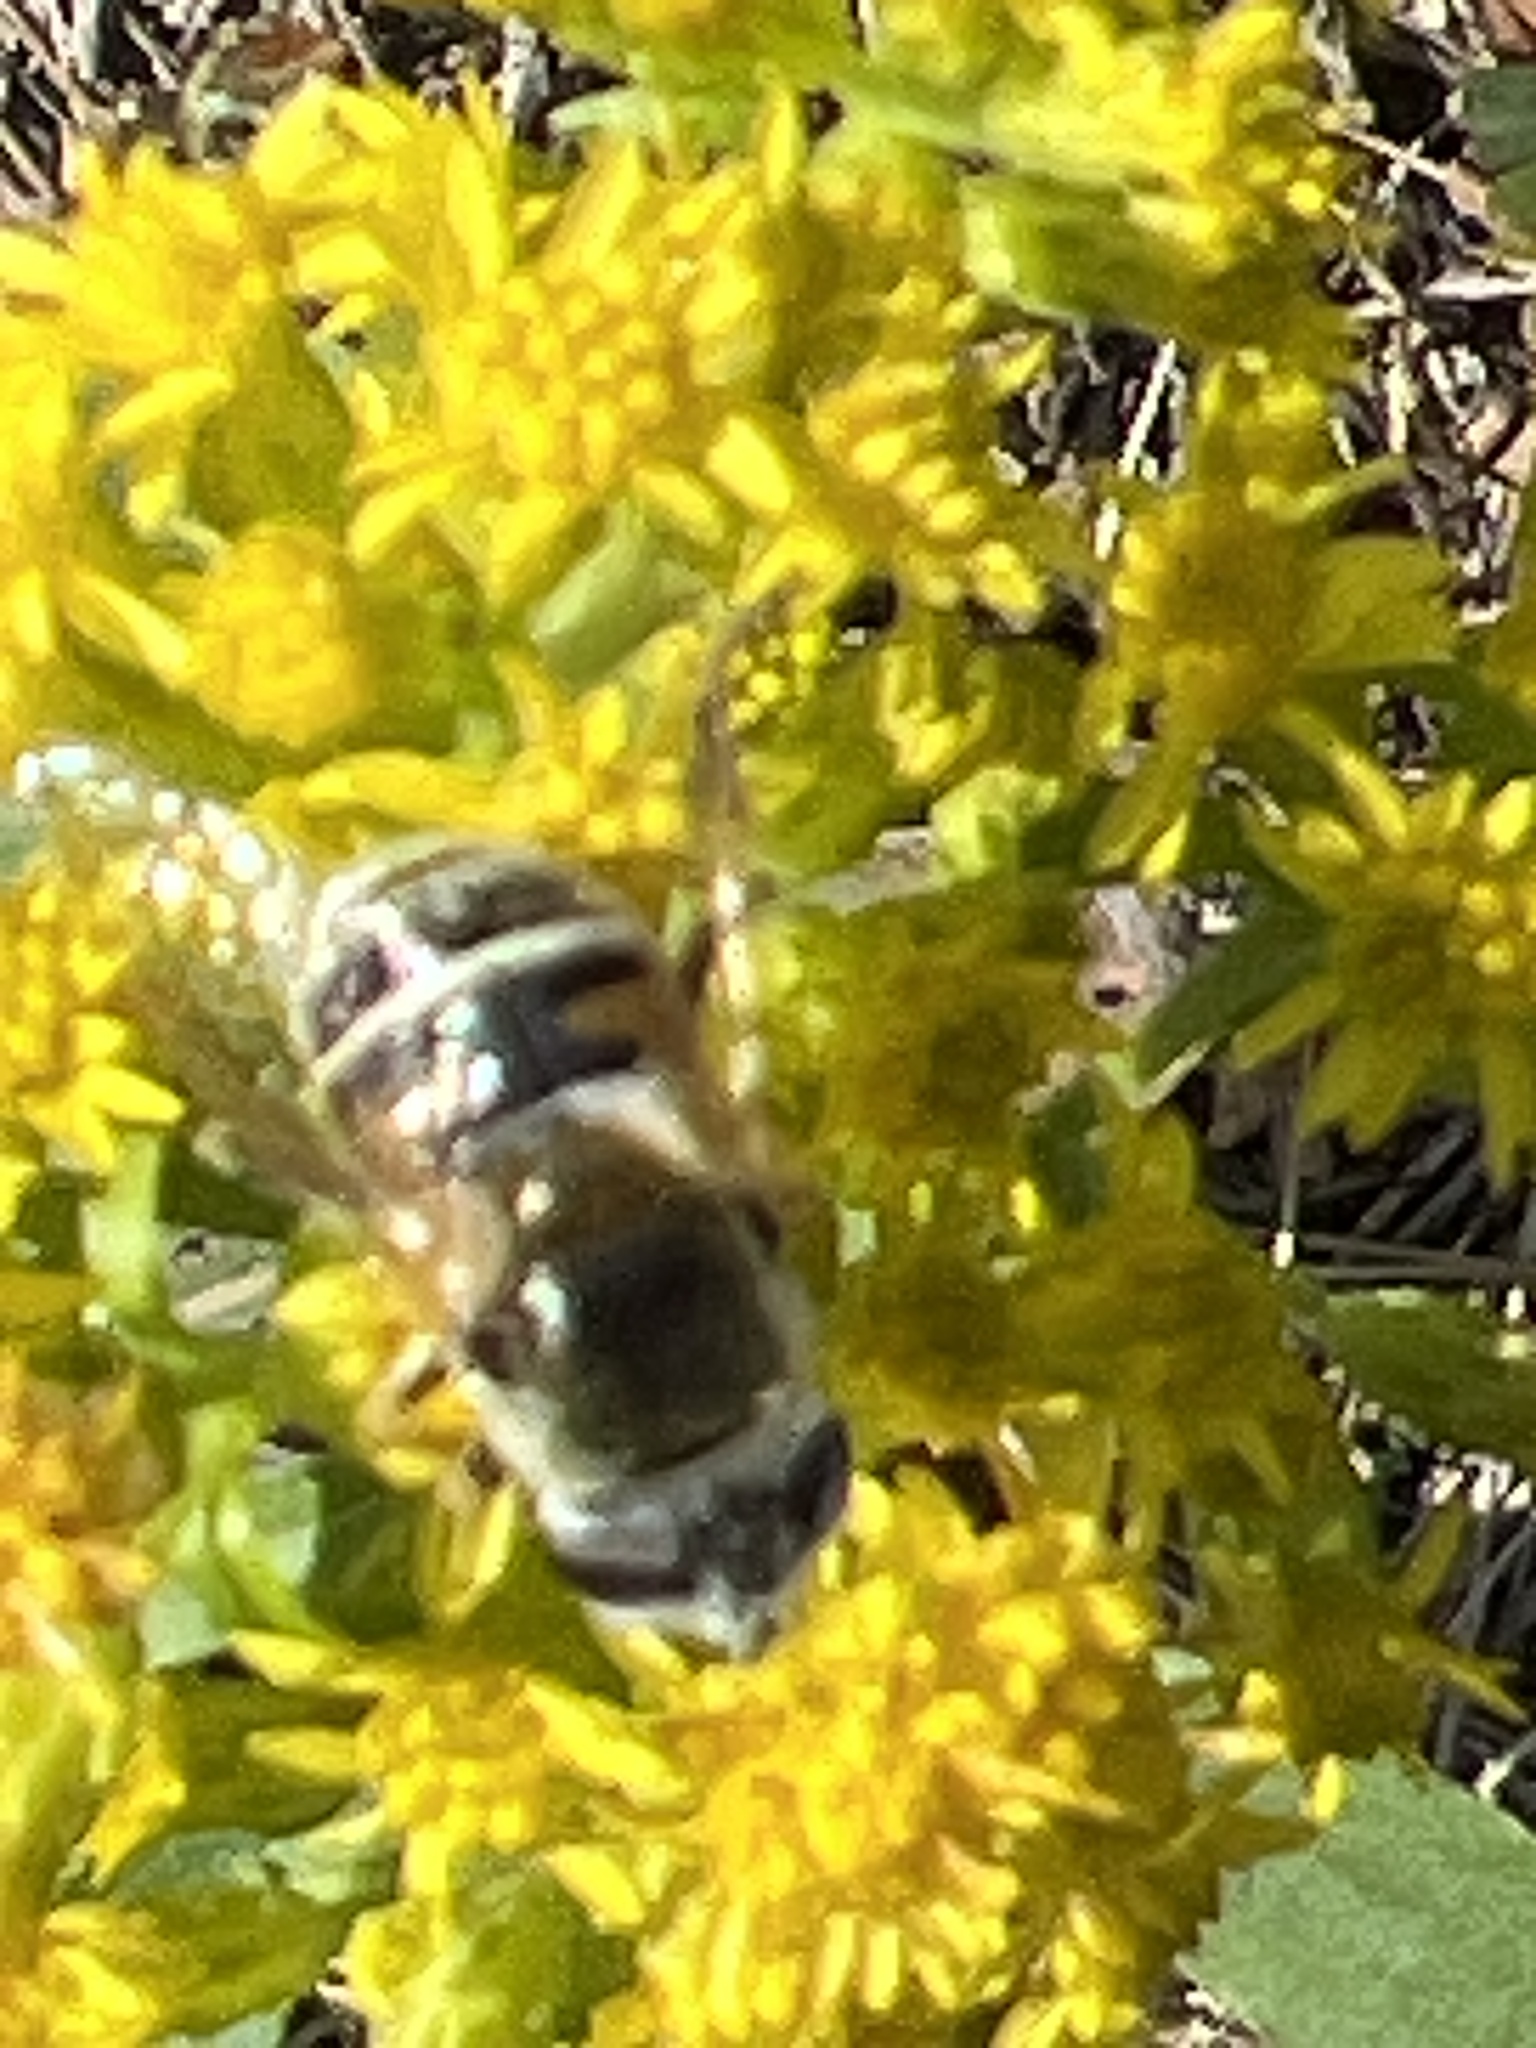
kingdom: Animalia
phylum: Arthropoda
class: Insecta
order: Diptera
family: Syrphidae
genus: Eristalis
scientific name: Eristalis stipator
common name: Yellow-shouldered drone fly
